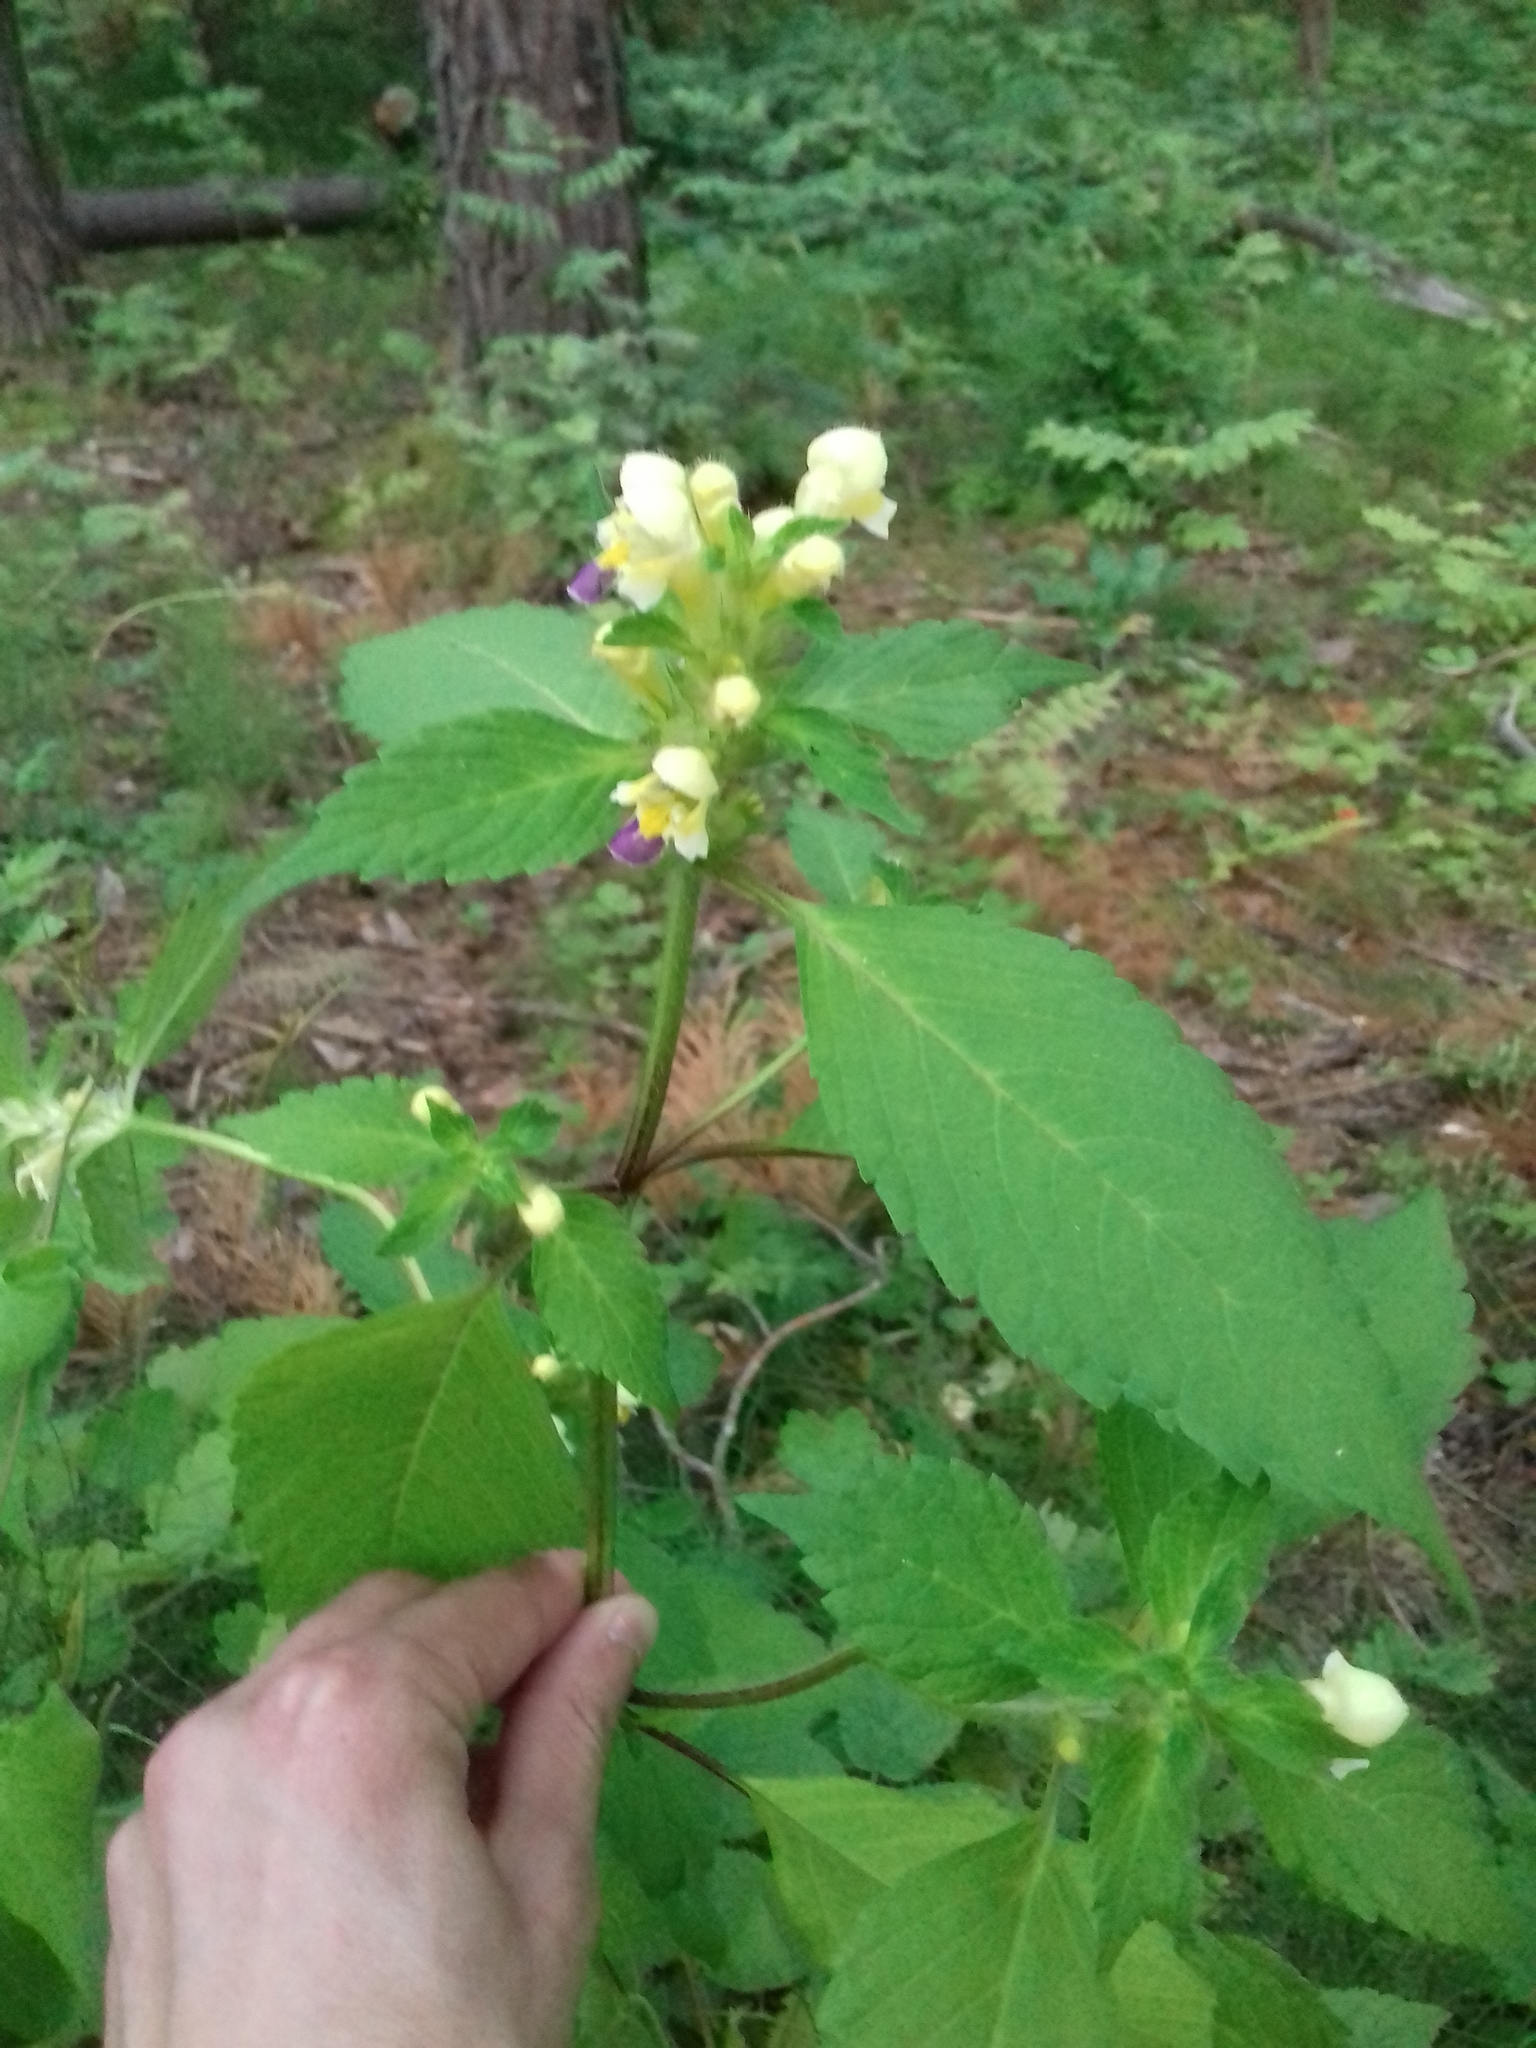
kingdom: Plantae
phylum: Tracheophyta
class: Magnoliopsida
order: Lamiales
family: Lamiaceae
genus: Galeopsis
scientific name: Galeopsis speciosa
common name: Large-flowered hemp-nettle
